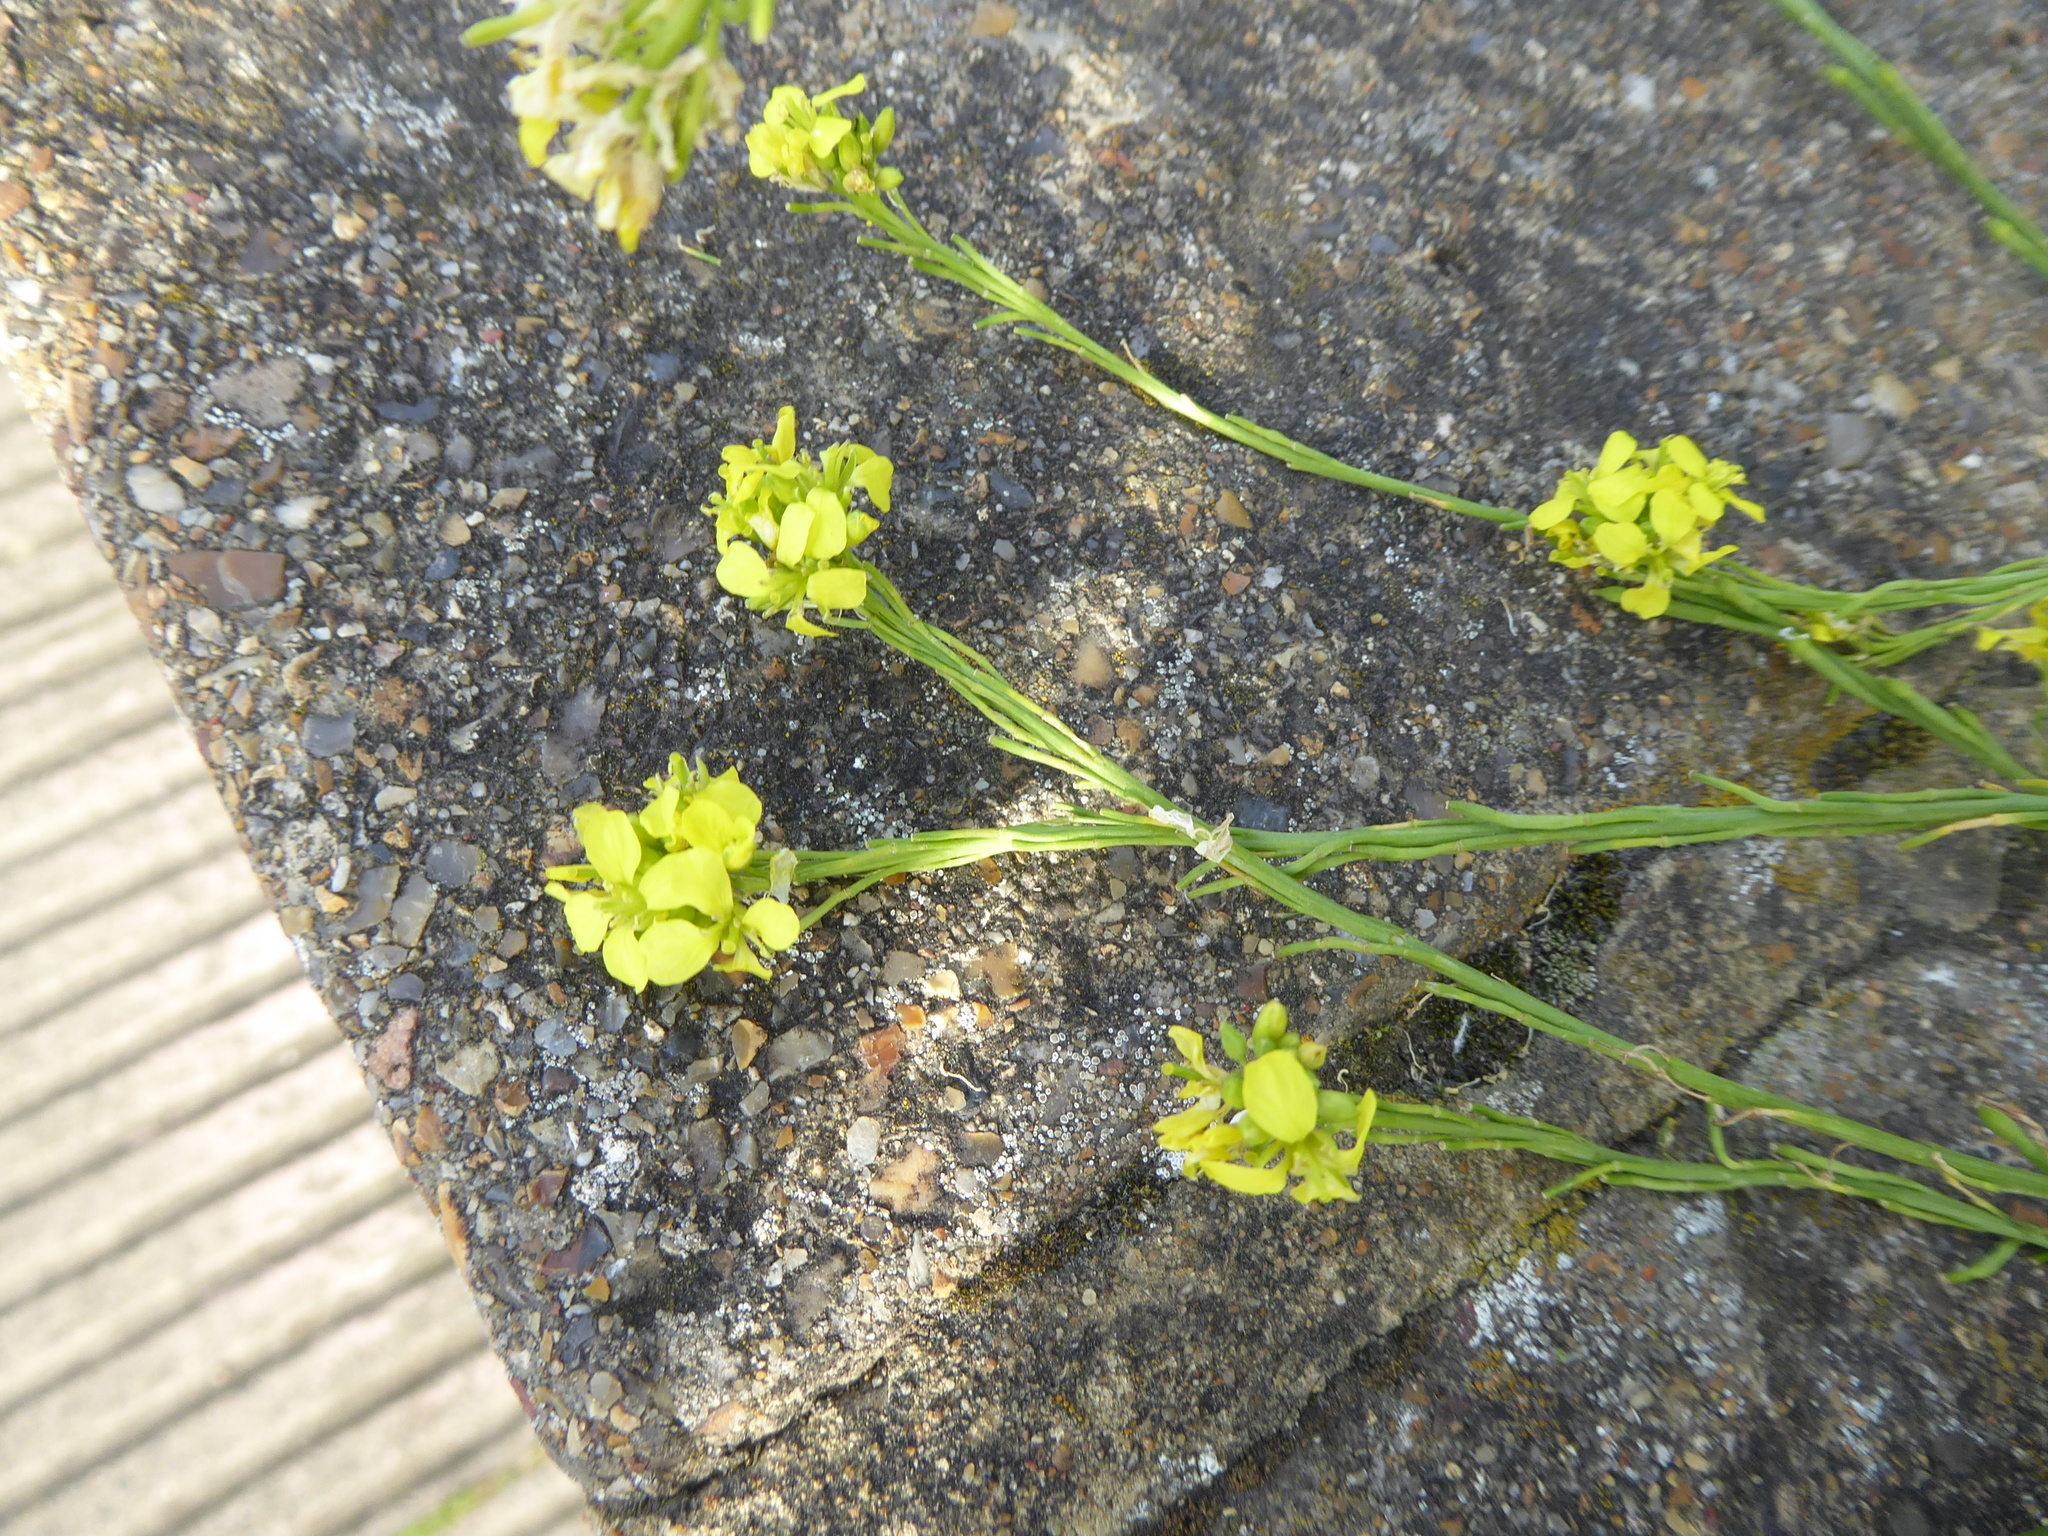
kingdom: Plantae
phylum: Tracheophyta
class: Magnoliopsida
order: Brassicales
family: Brassicaceae
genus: Hirschfeldia
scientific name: Hirschfeldia incana
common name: Hoary mustard
